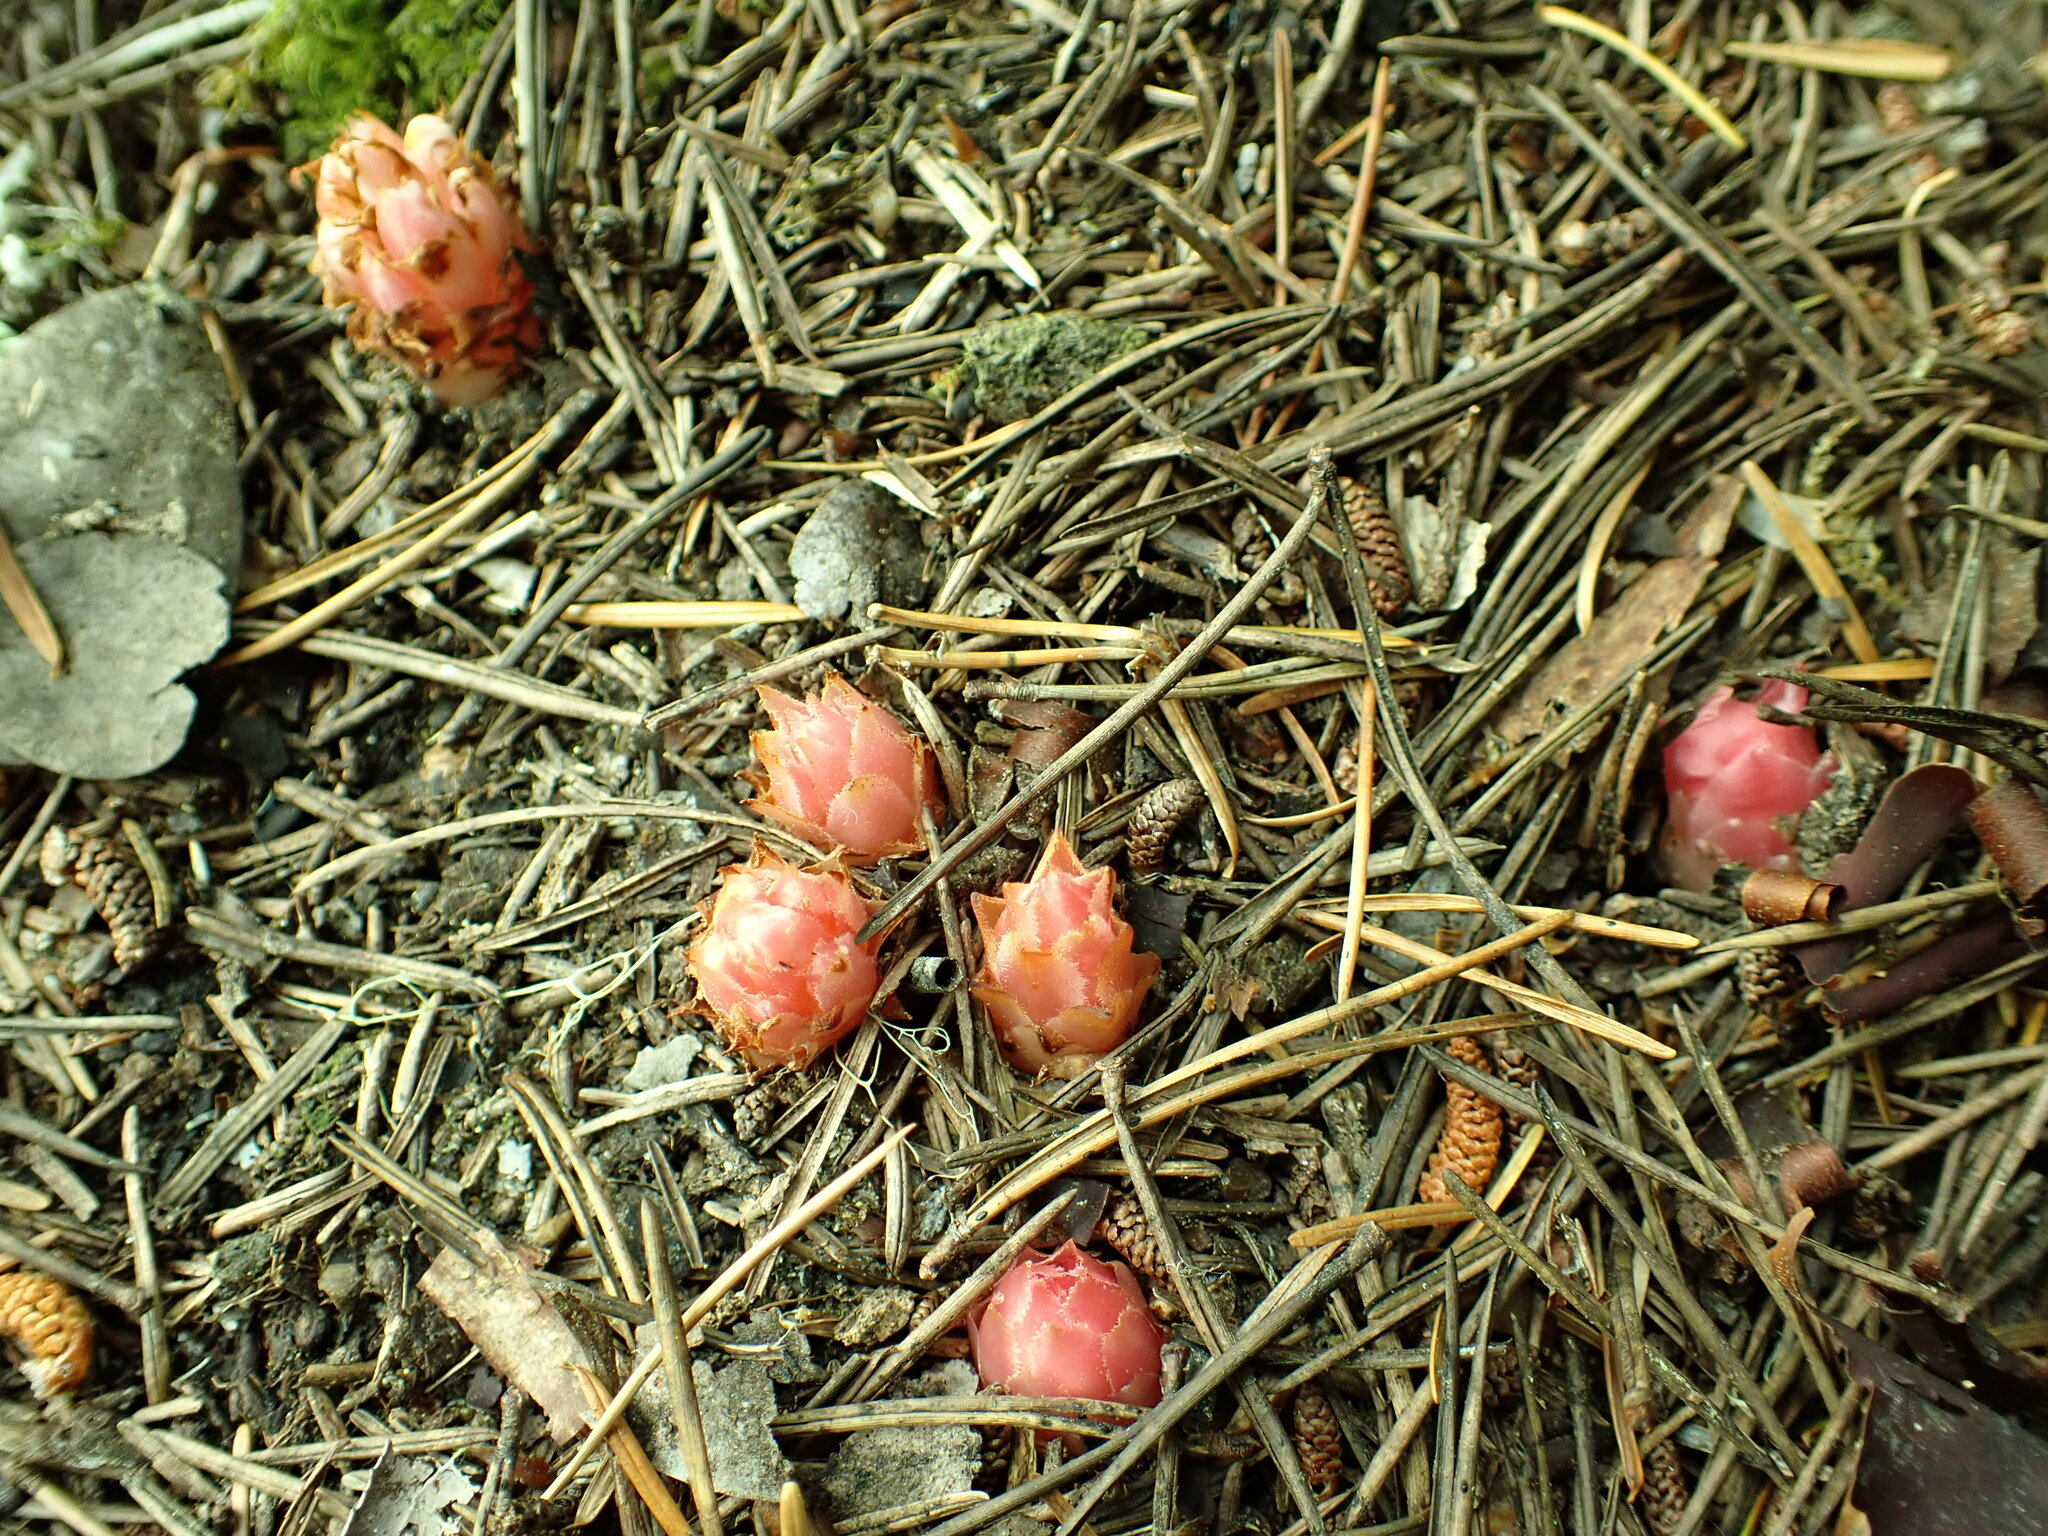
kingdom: Plantae
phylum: Tracheophyta
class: Magnoliopsida
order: Ericales
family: Ericaceae
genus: Hemitomes
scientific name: Hemitomes congestum
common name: Cone plant
